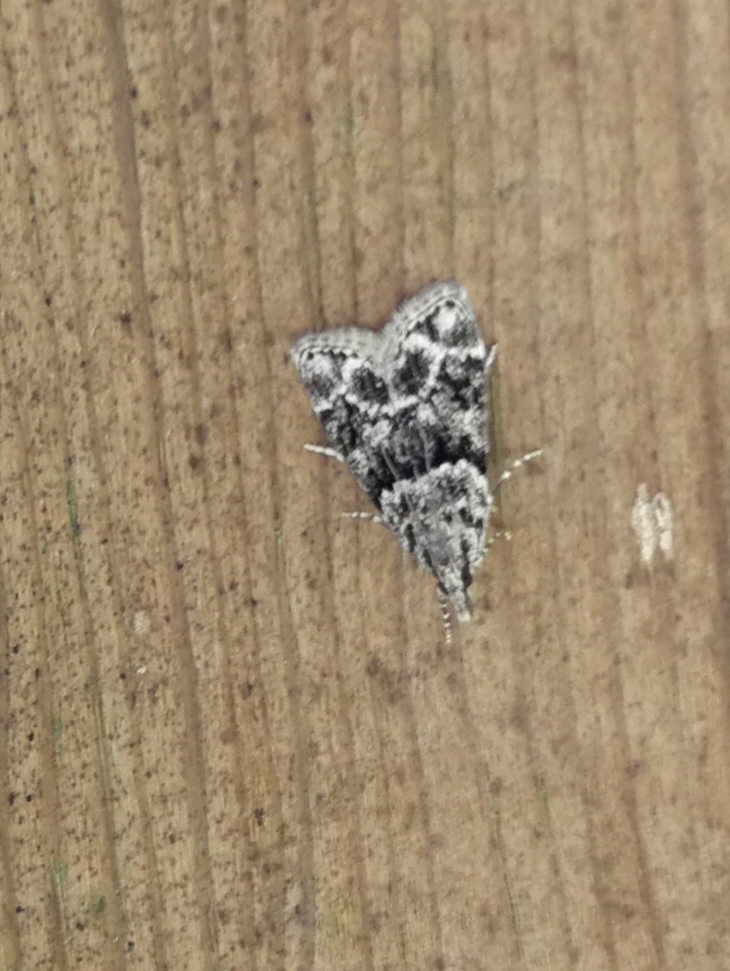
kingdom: Animalia
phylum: Arthropoda
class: Insecta
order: Lepidoptera
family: Crambidae
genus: Eudonia
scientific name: Eudonia delunella
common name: Pied grey
